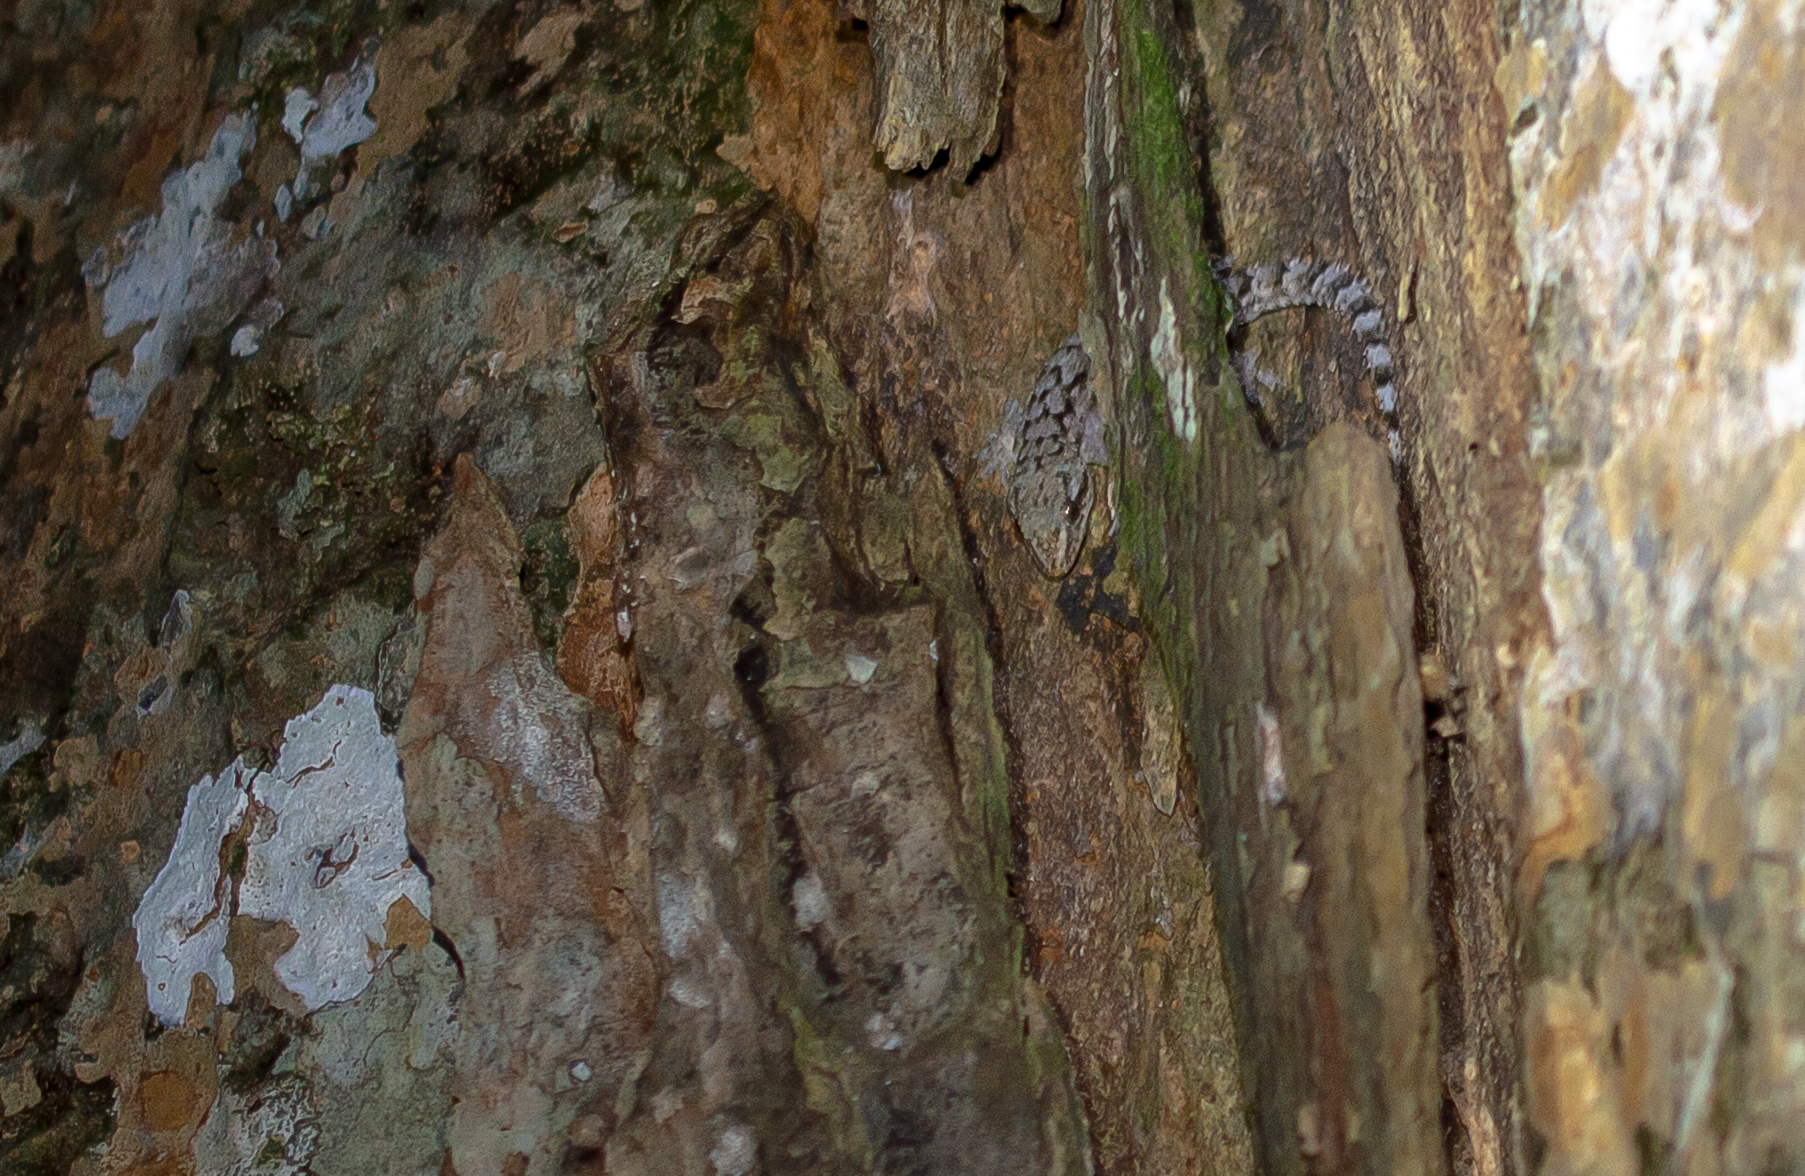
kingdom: Animalia
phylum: Chordata
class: Squamata
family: Gekkonidae
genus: Hemidactylus
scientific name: Hemidactylus palaichthus
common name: Antilles leaf-toed gecko
